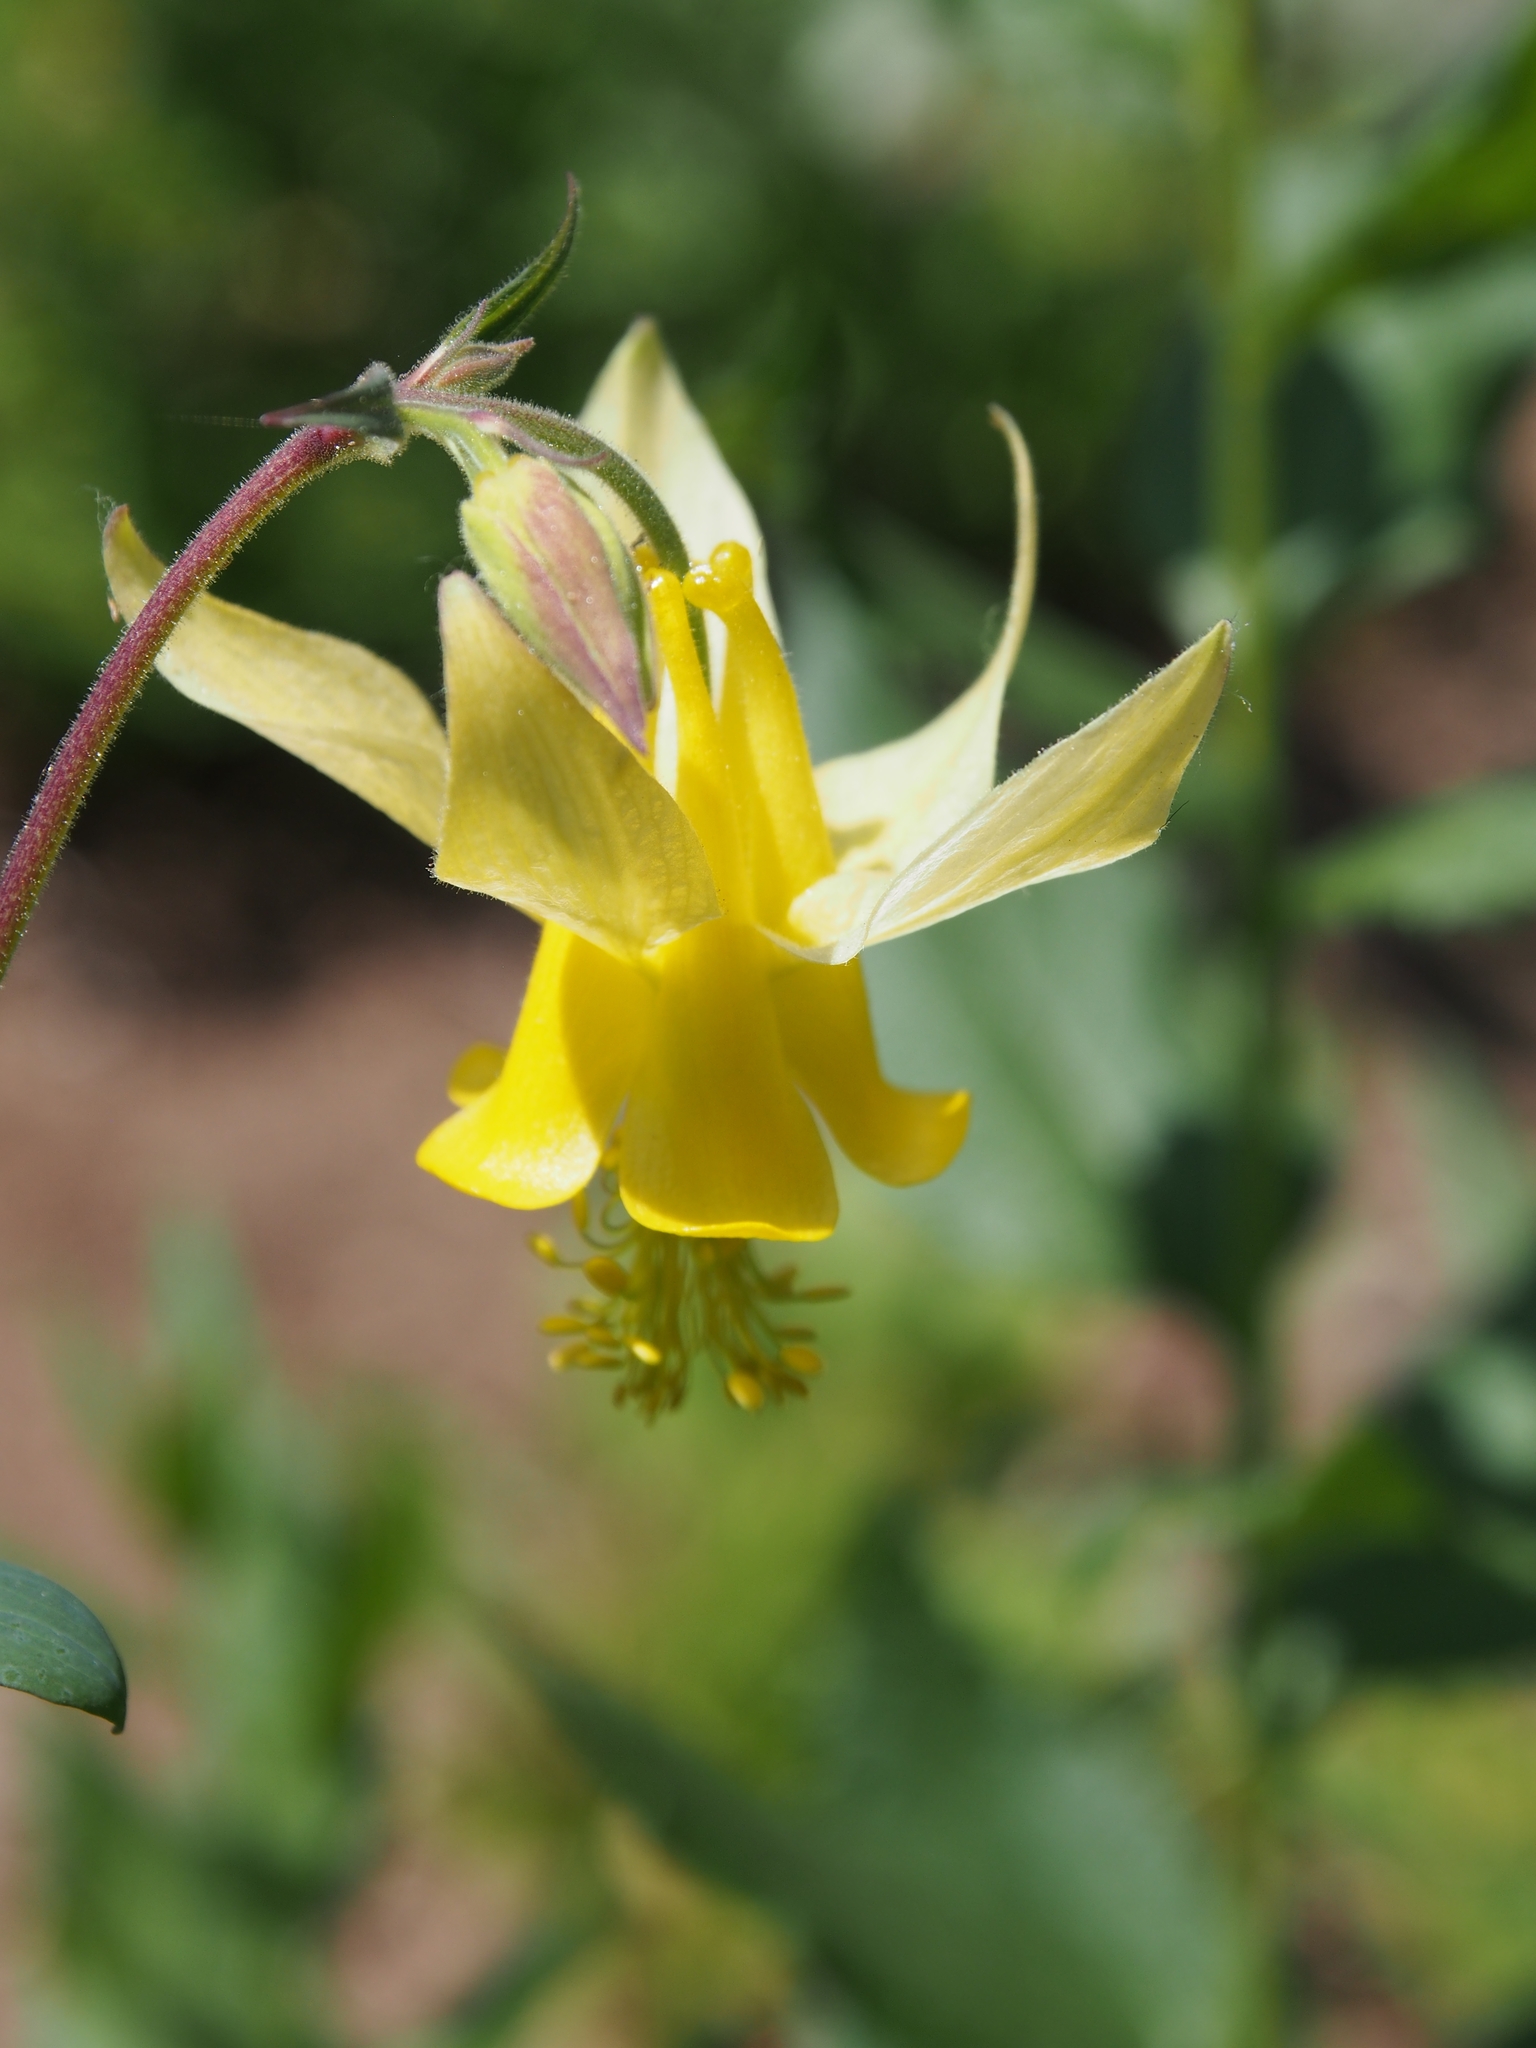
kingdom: Plantae
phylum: Tracheophyta
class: Magnoliopsida
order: Ranunculales
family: Ranunculaceae
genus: Aquilegia
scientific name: Aquilegia flavescens
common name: Yellow columbine
